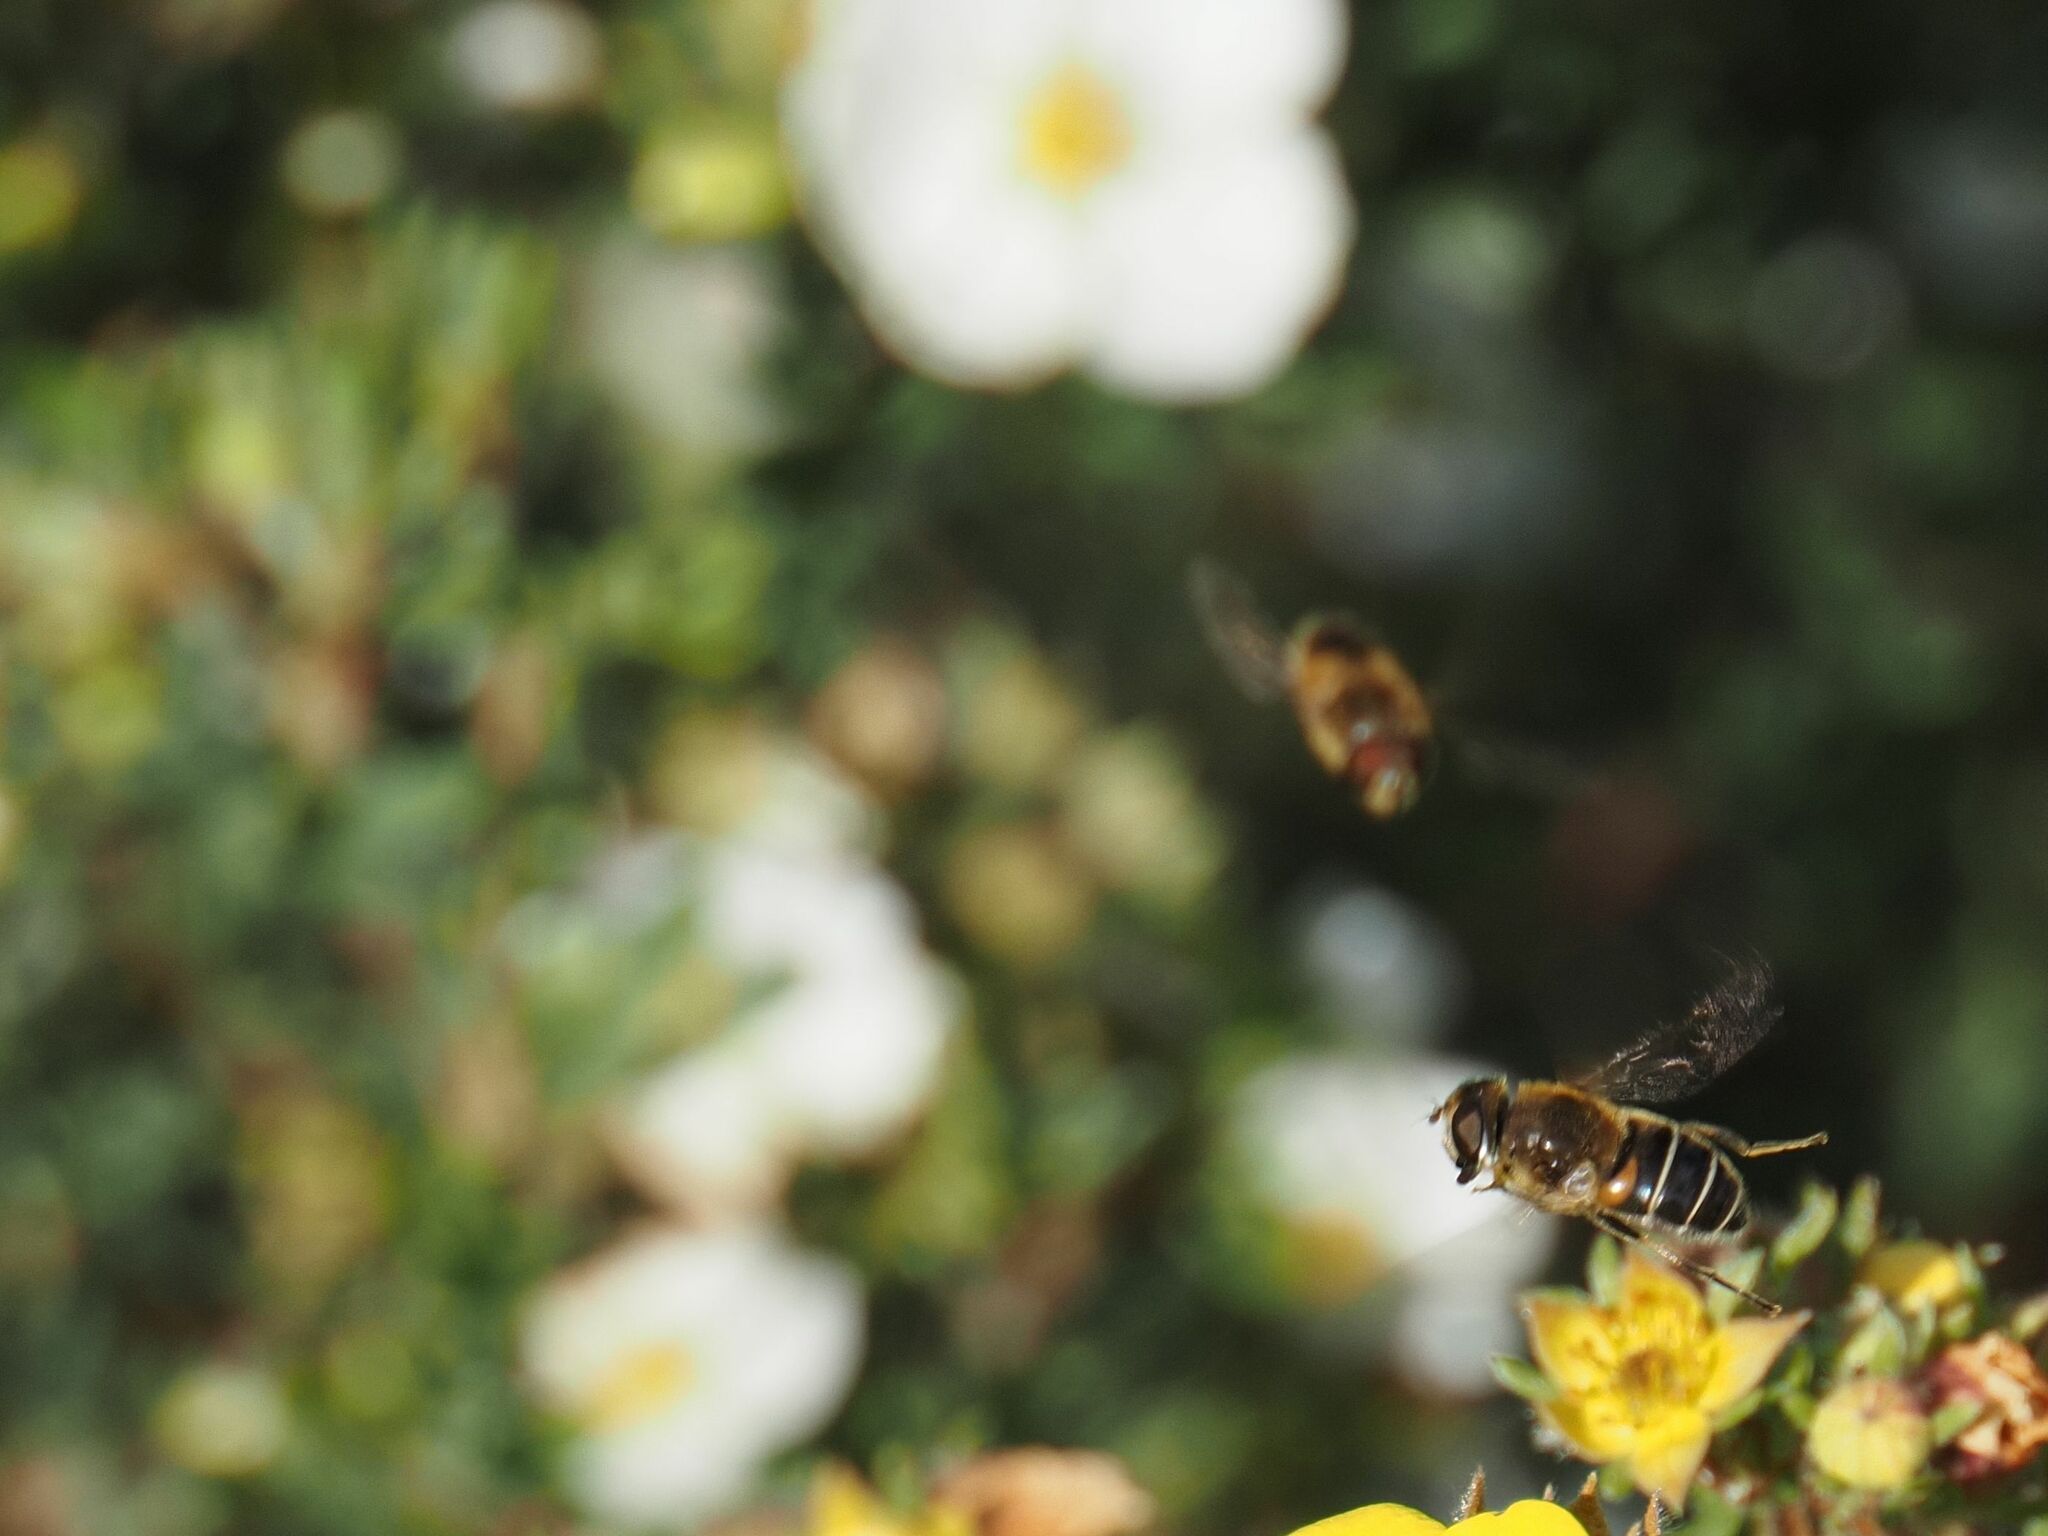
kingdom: Animalia
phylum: Arthropoda
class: Insecta
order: Diptera
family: Syrphidae
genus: Eristalis
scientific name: Eristalis nemorum
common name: Orange-spined drone fly
